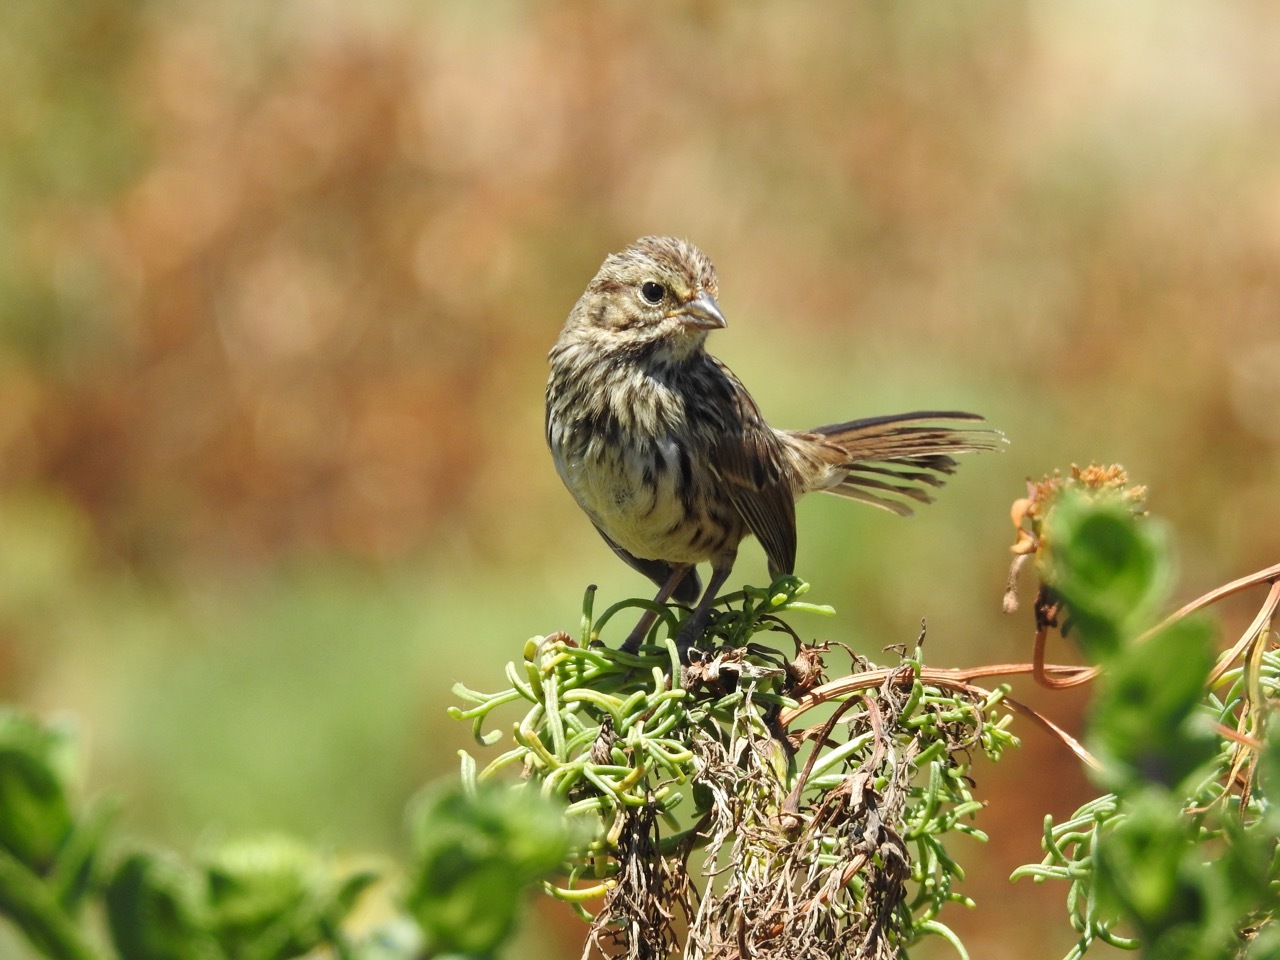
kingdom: Animalia
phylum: Chordata
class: Aves
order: Passeriformes
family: Passerellidae
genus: Melospiza
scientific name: Melospiza melodia
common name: Song sparrow
